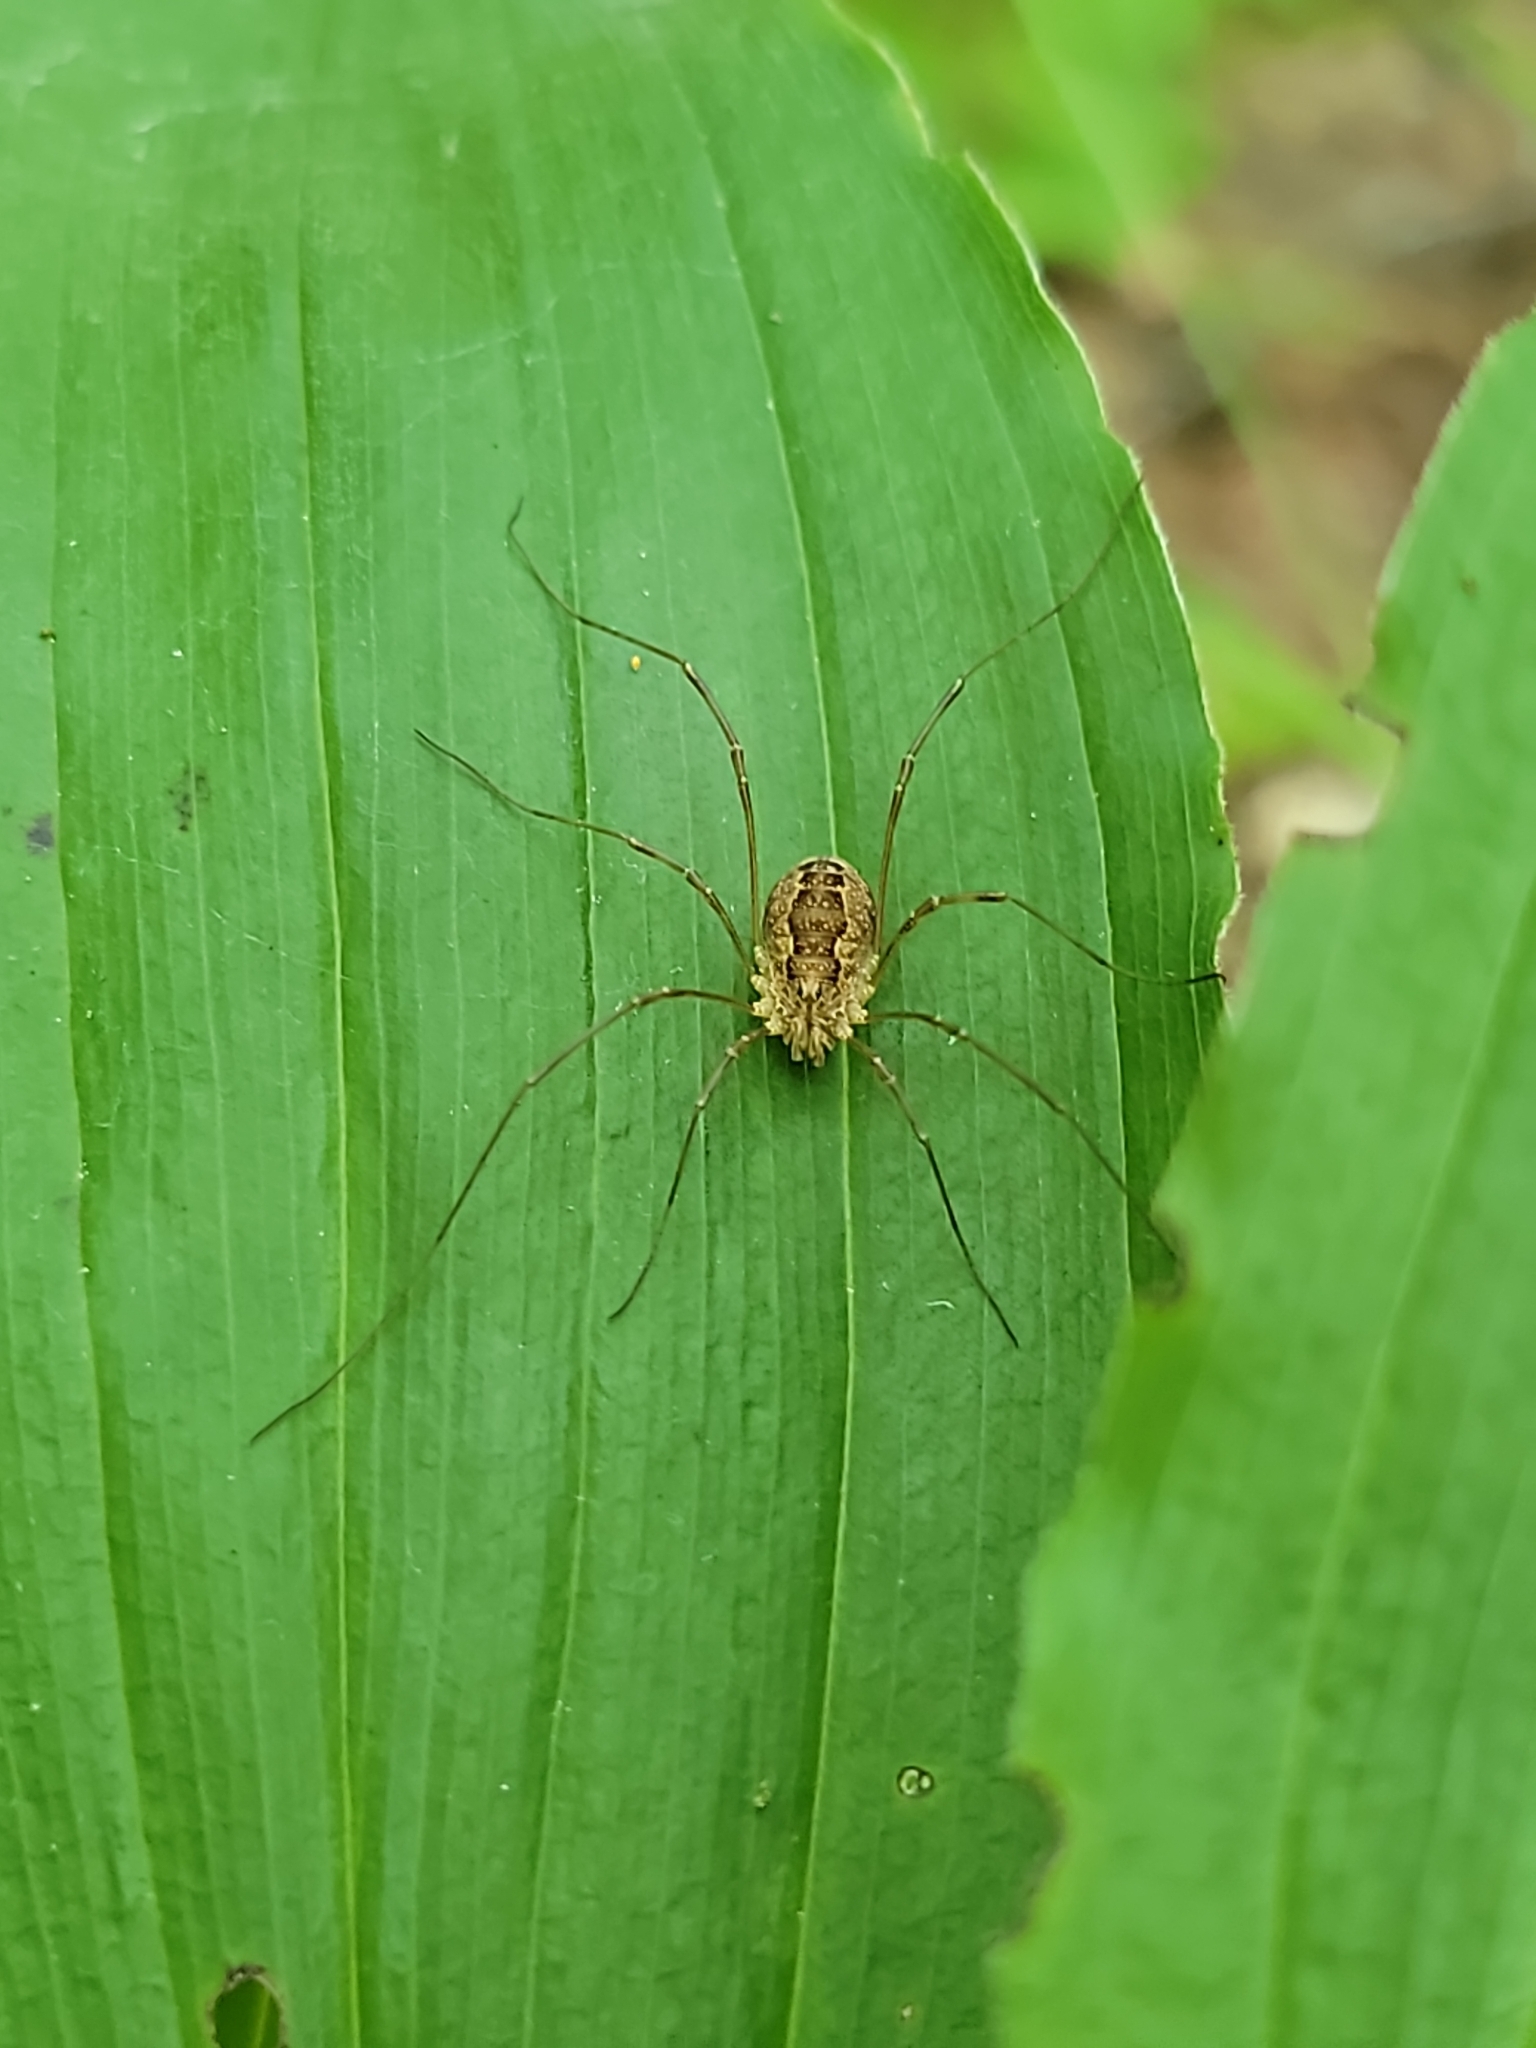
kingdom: Animalia
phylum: Arthropoda
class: Arachnida
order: Opiliones
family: Phalangiidae
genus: Rilaena
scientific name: Rilaena triangularis
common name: Spring harvestman
